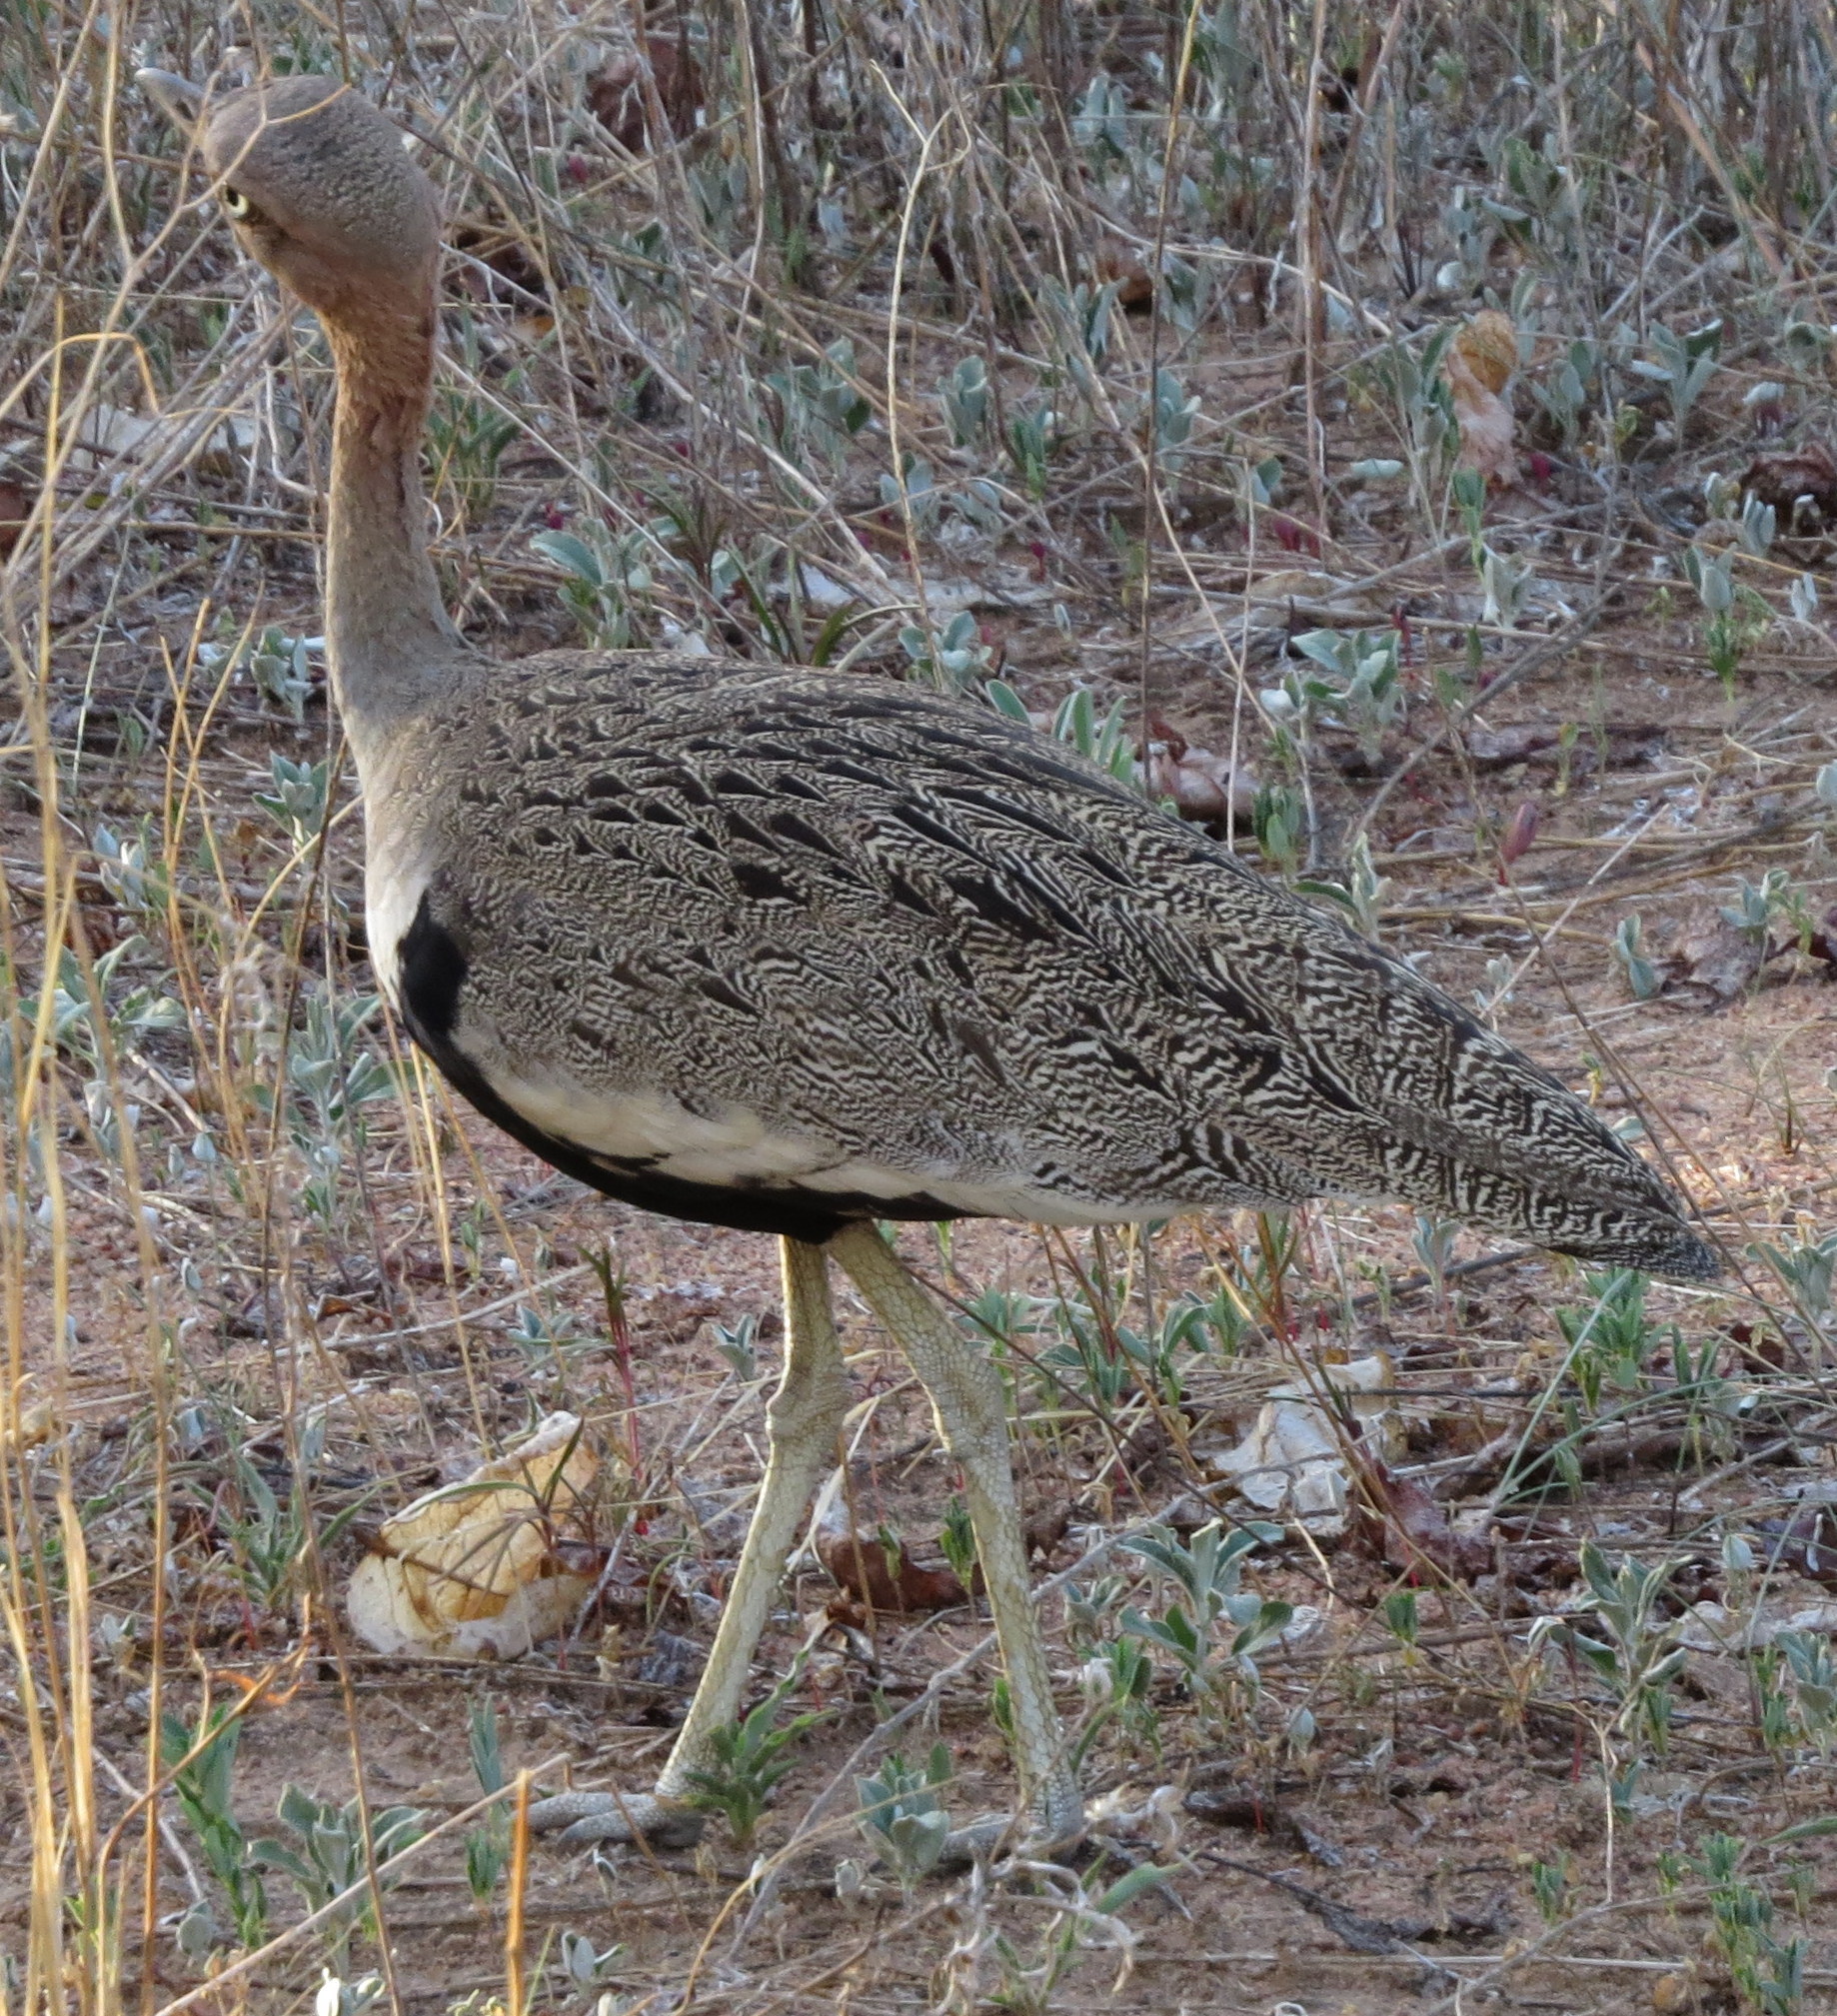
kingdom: Animalia
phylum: Chordata
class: Aves
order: Otidiformes
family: Otididae
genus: Lophotis
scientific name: Lophotis gindiana
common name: Buff-crested bustard
